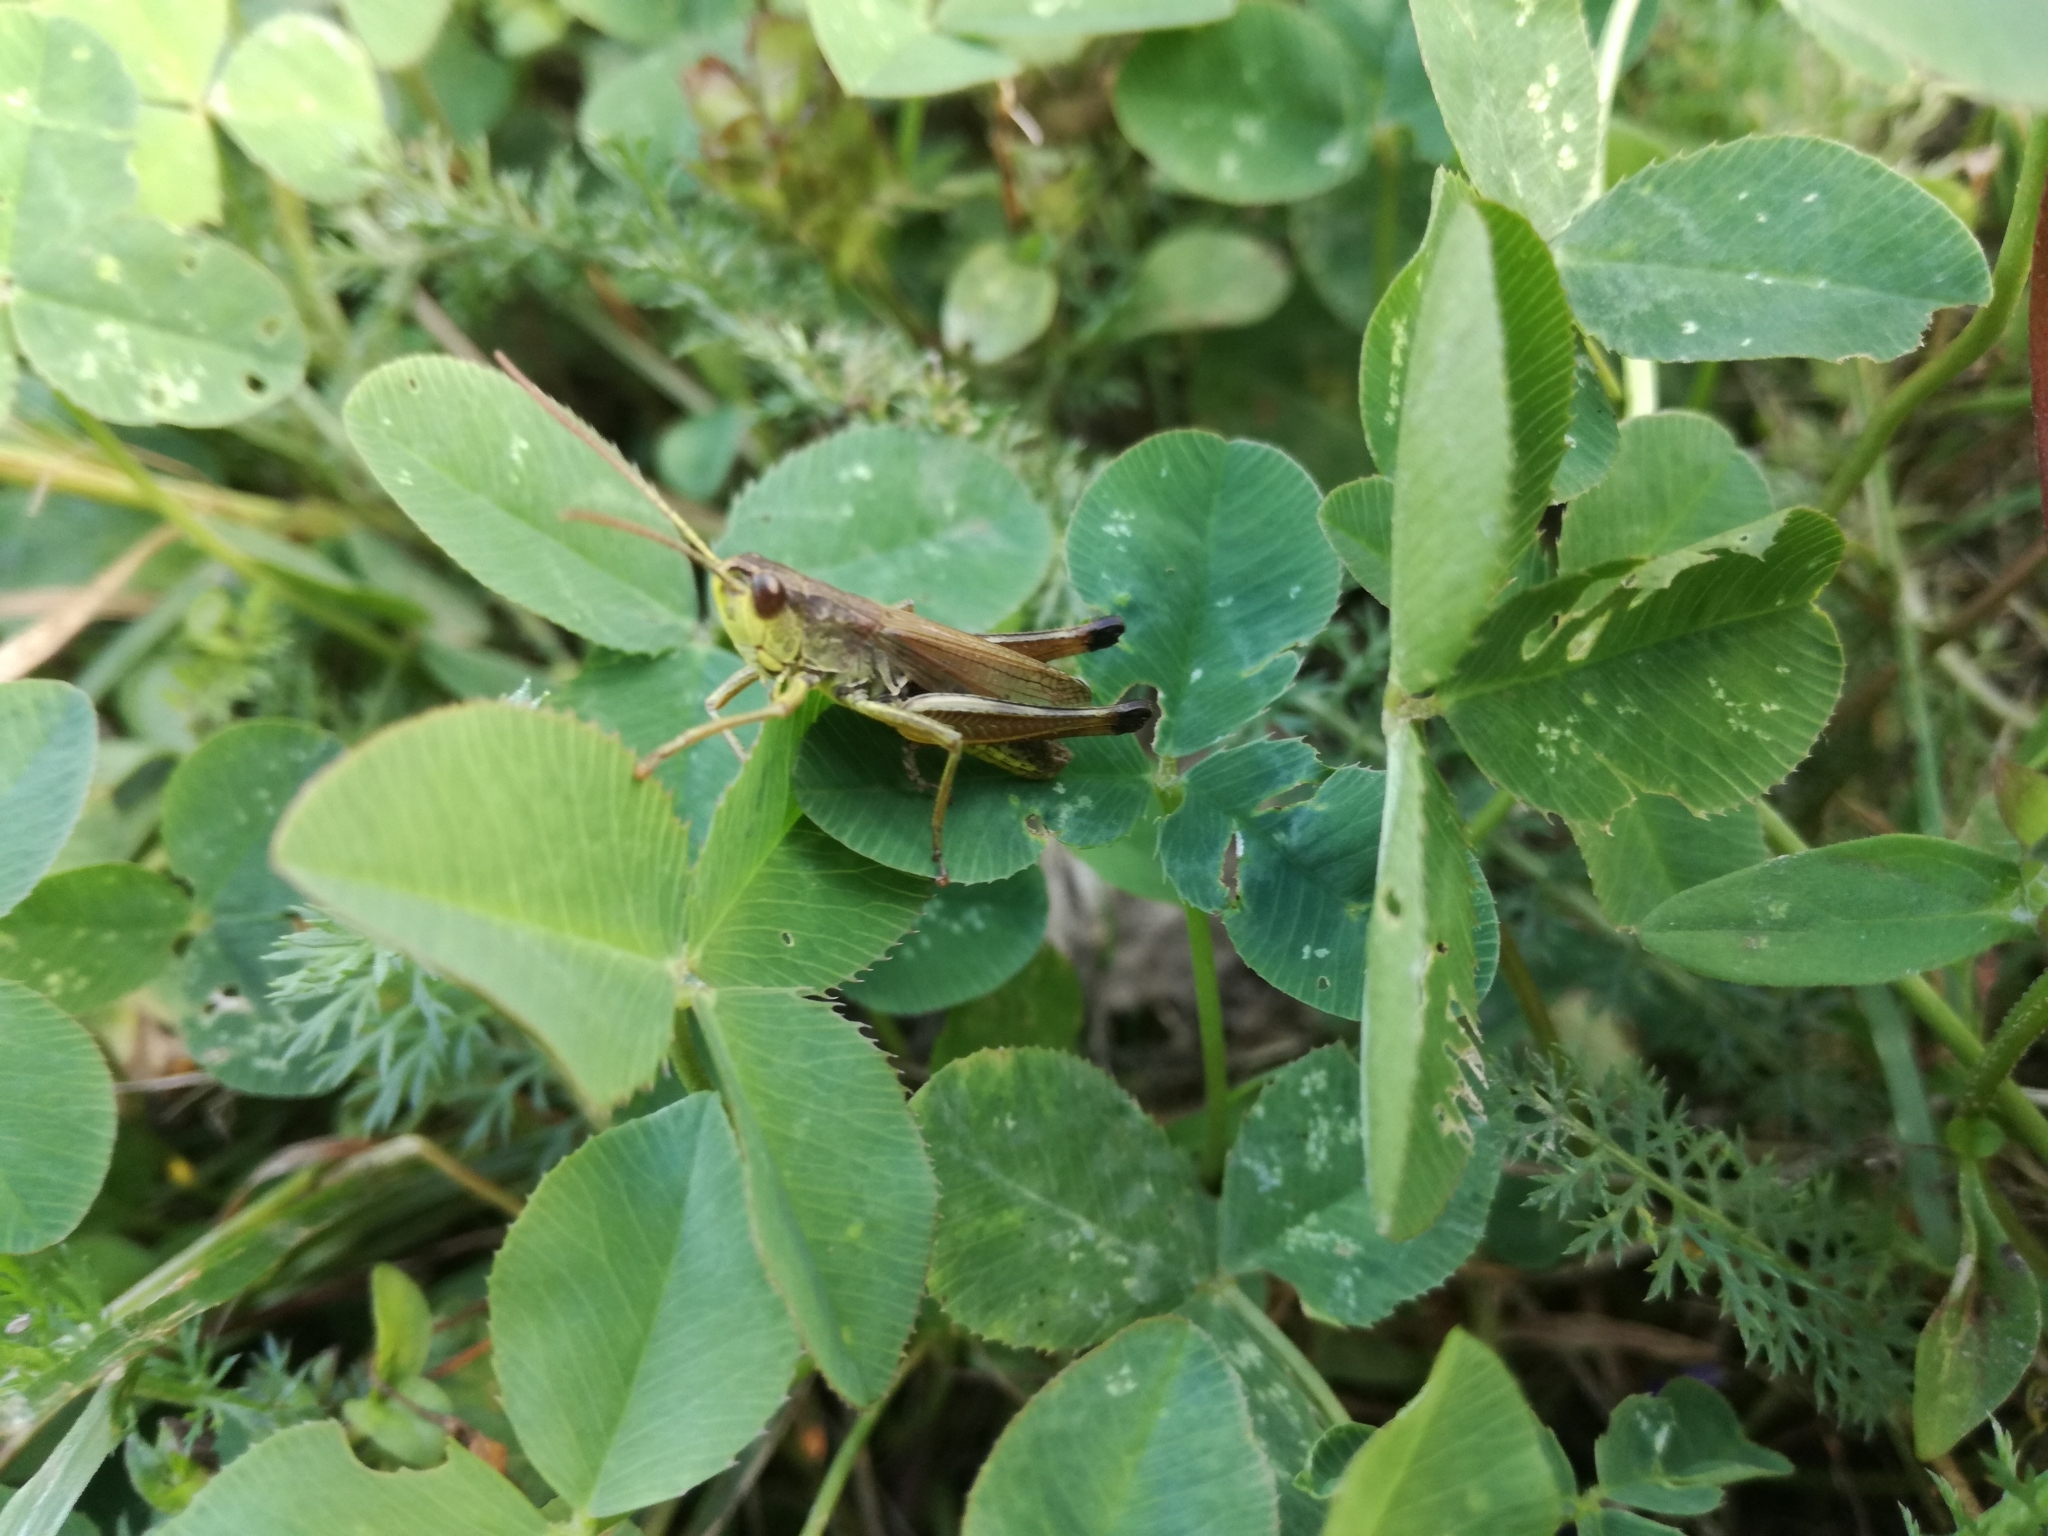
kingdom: Animalia
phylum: Arthropoda
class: Insecta
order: Orthoptera
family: Acrididae
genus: Pseudochorthippus
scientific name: Pseudochorthippus parallelus
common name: Meadow grasshopper
